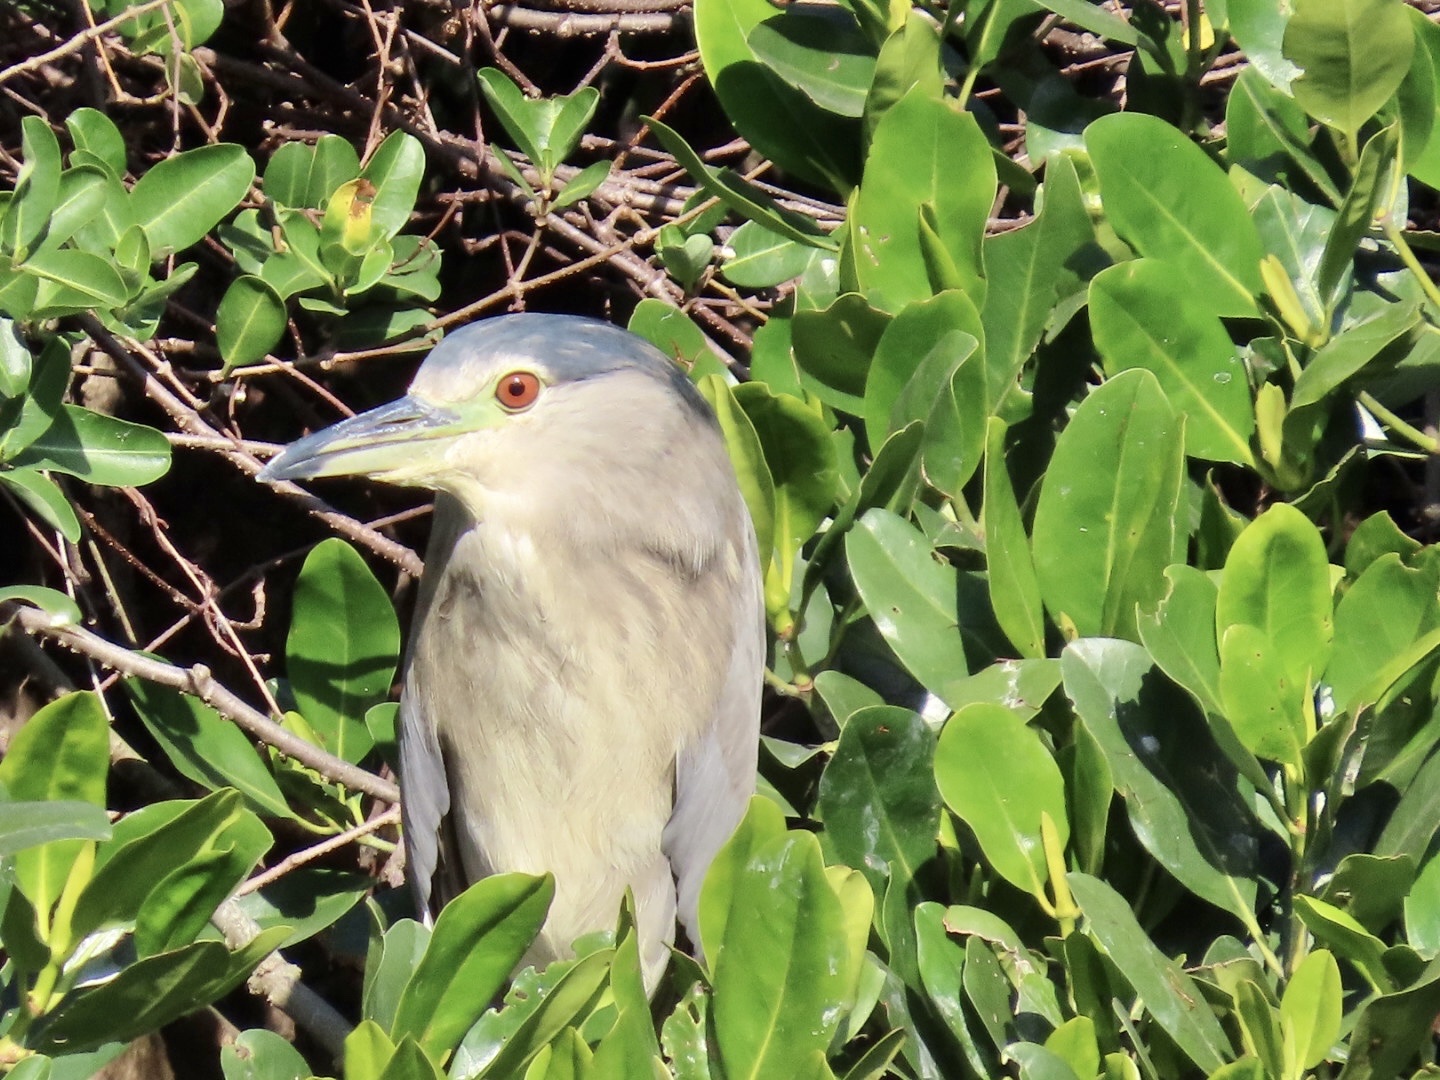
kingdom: Animalia
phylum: Chordata
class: Aves
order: Pelecaniformes
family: Ardeidae
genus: Nycticorax
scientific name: Nycticorax nycticorax
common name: Black-crowned night heron
